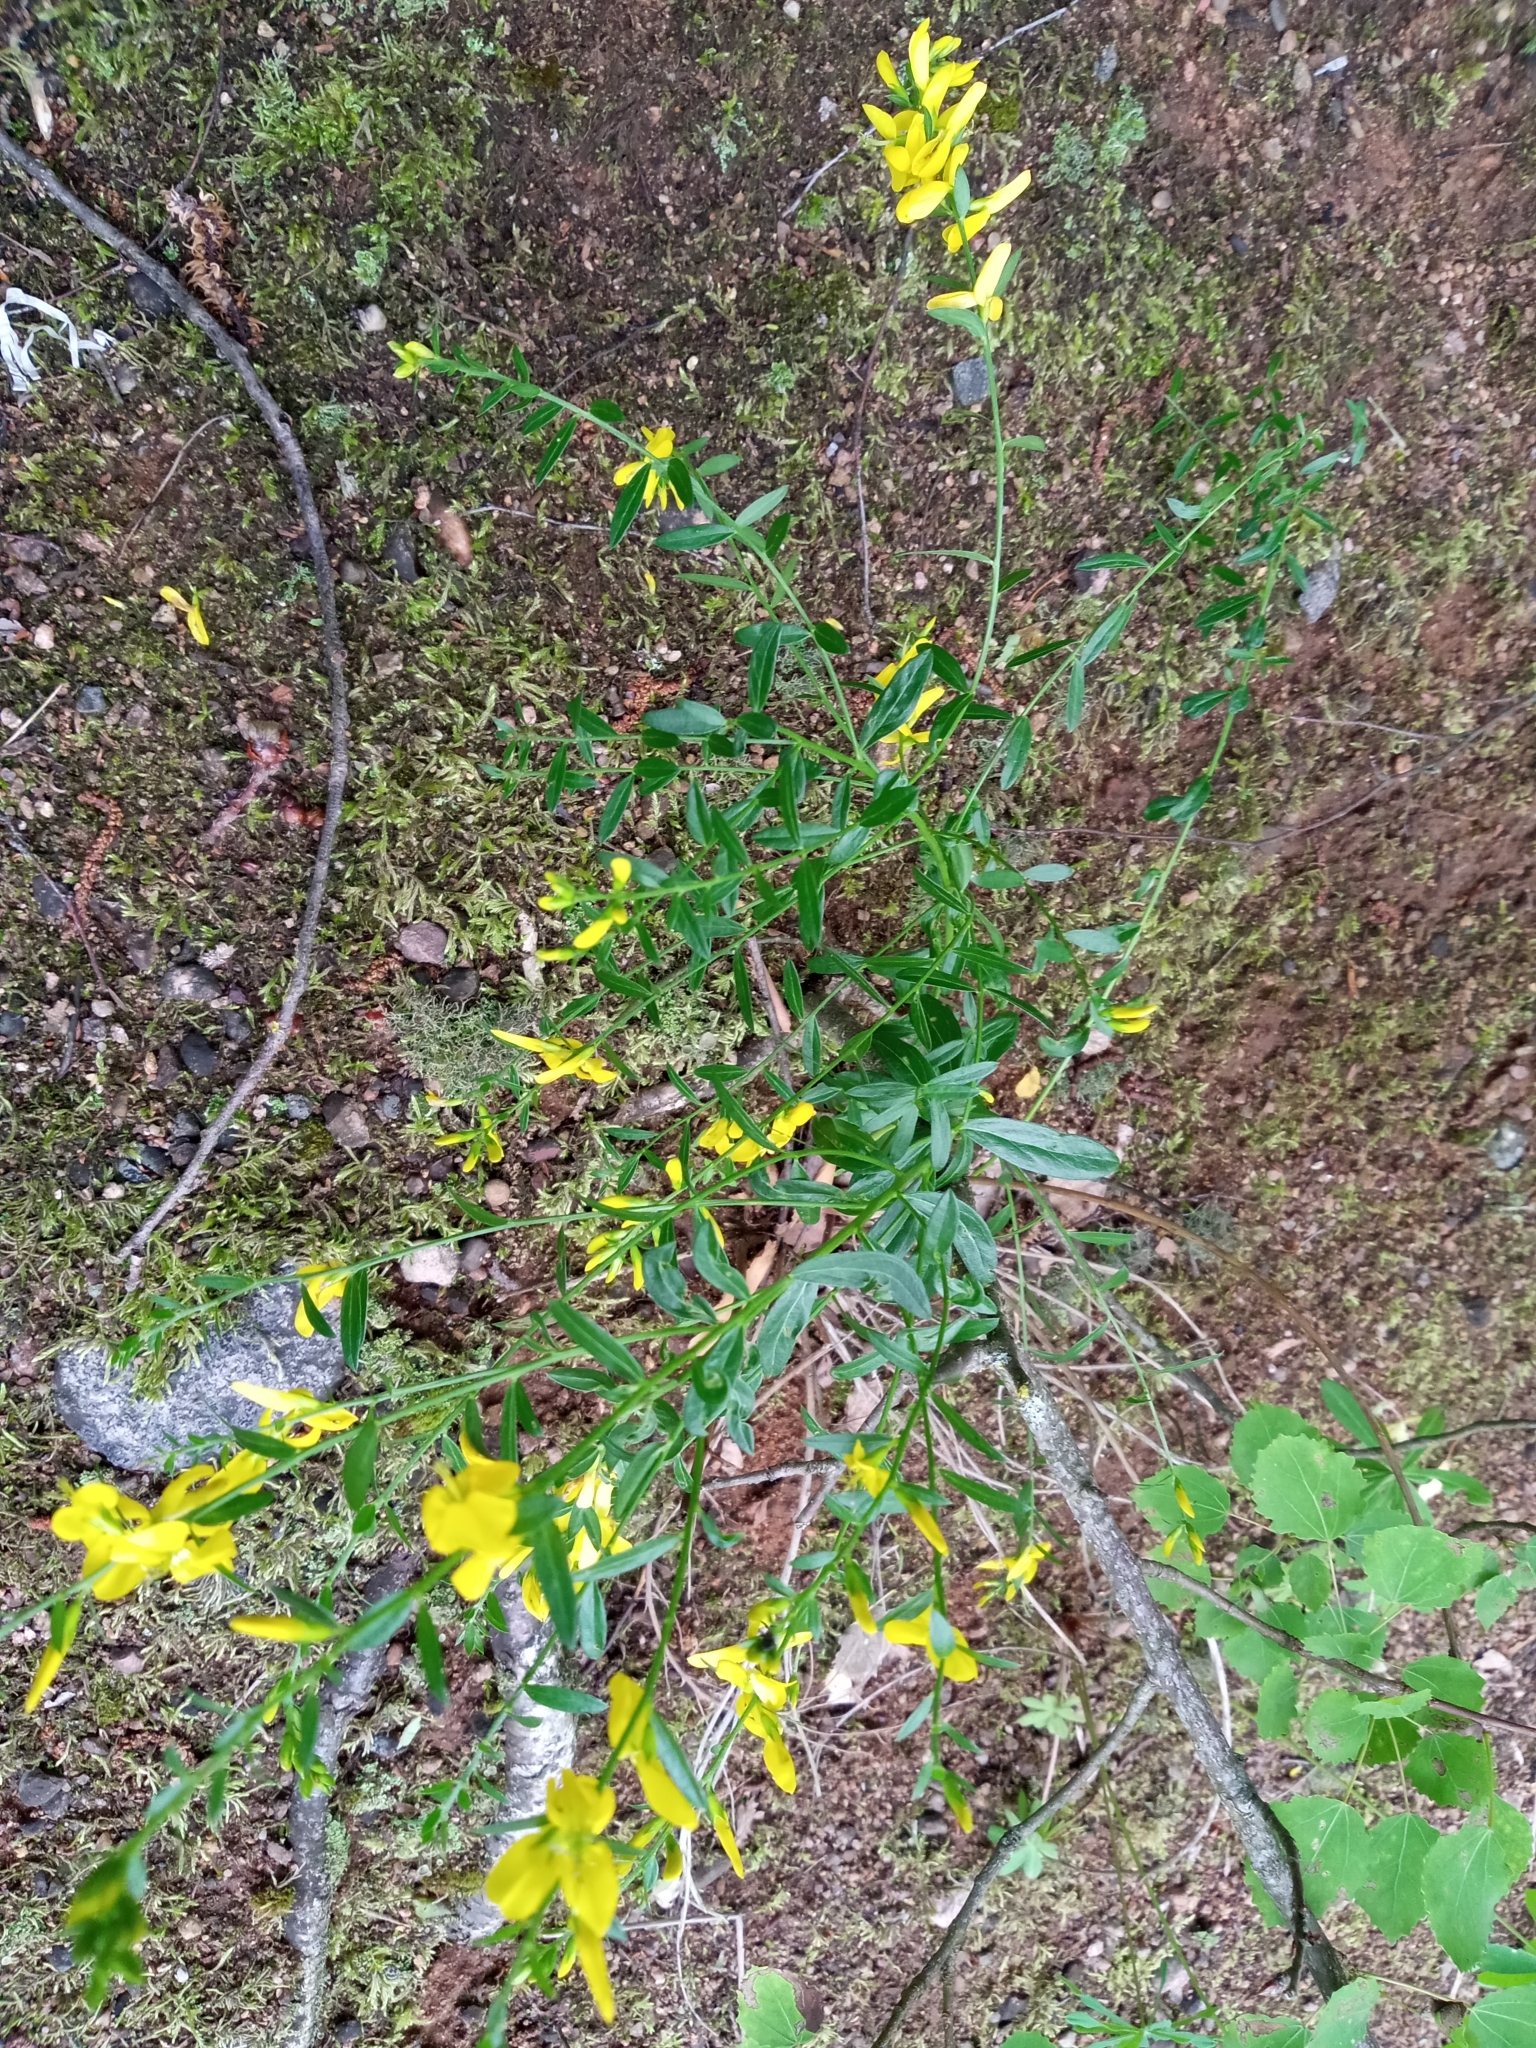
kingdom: Plantae
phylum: Tracheophyta
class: Magnoliopsida
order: Fabales
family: Fabaceae
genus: Genista
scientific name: Genista tinctoria
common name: Dyer's greenweed
